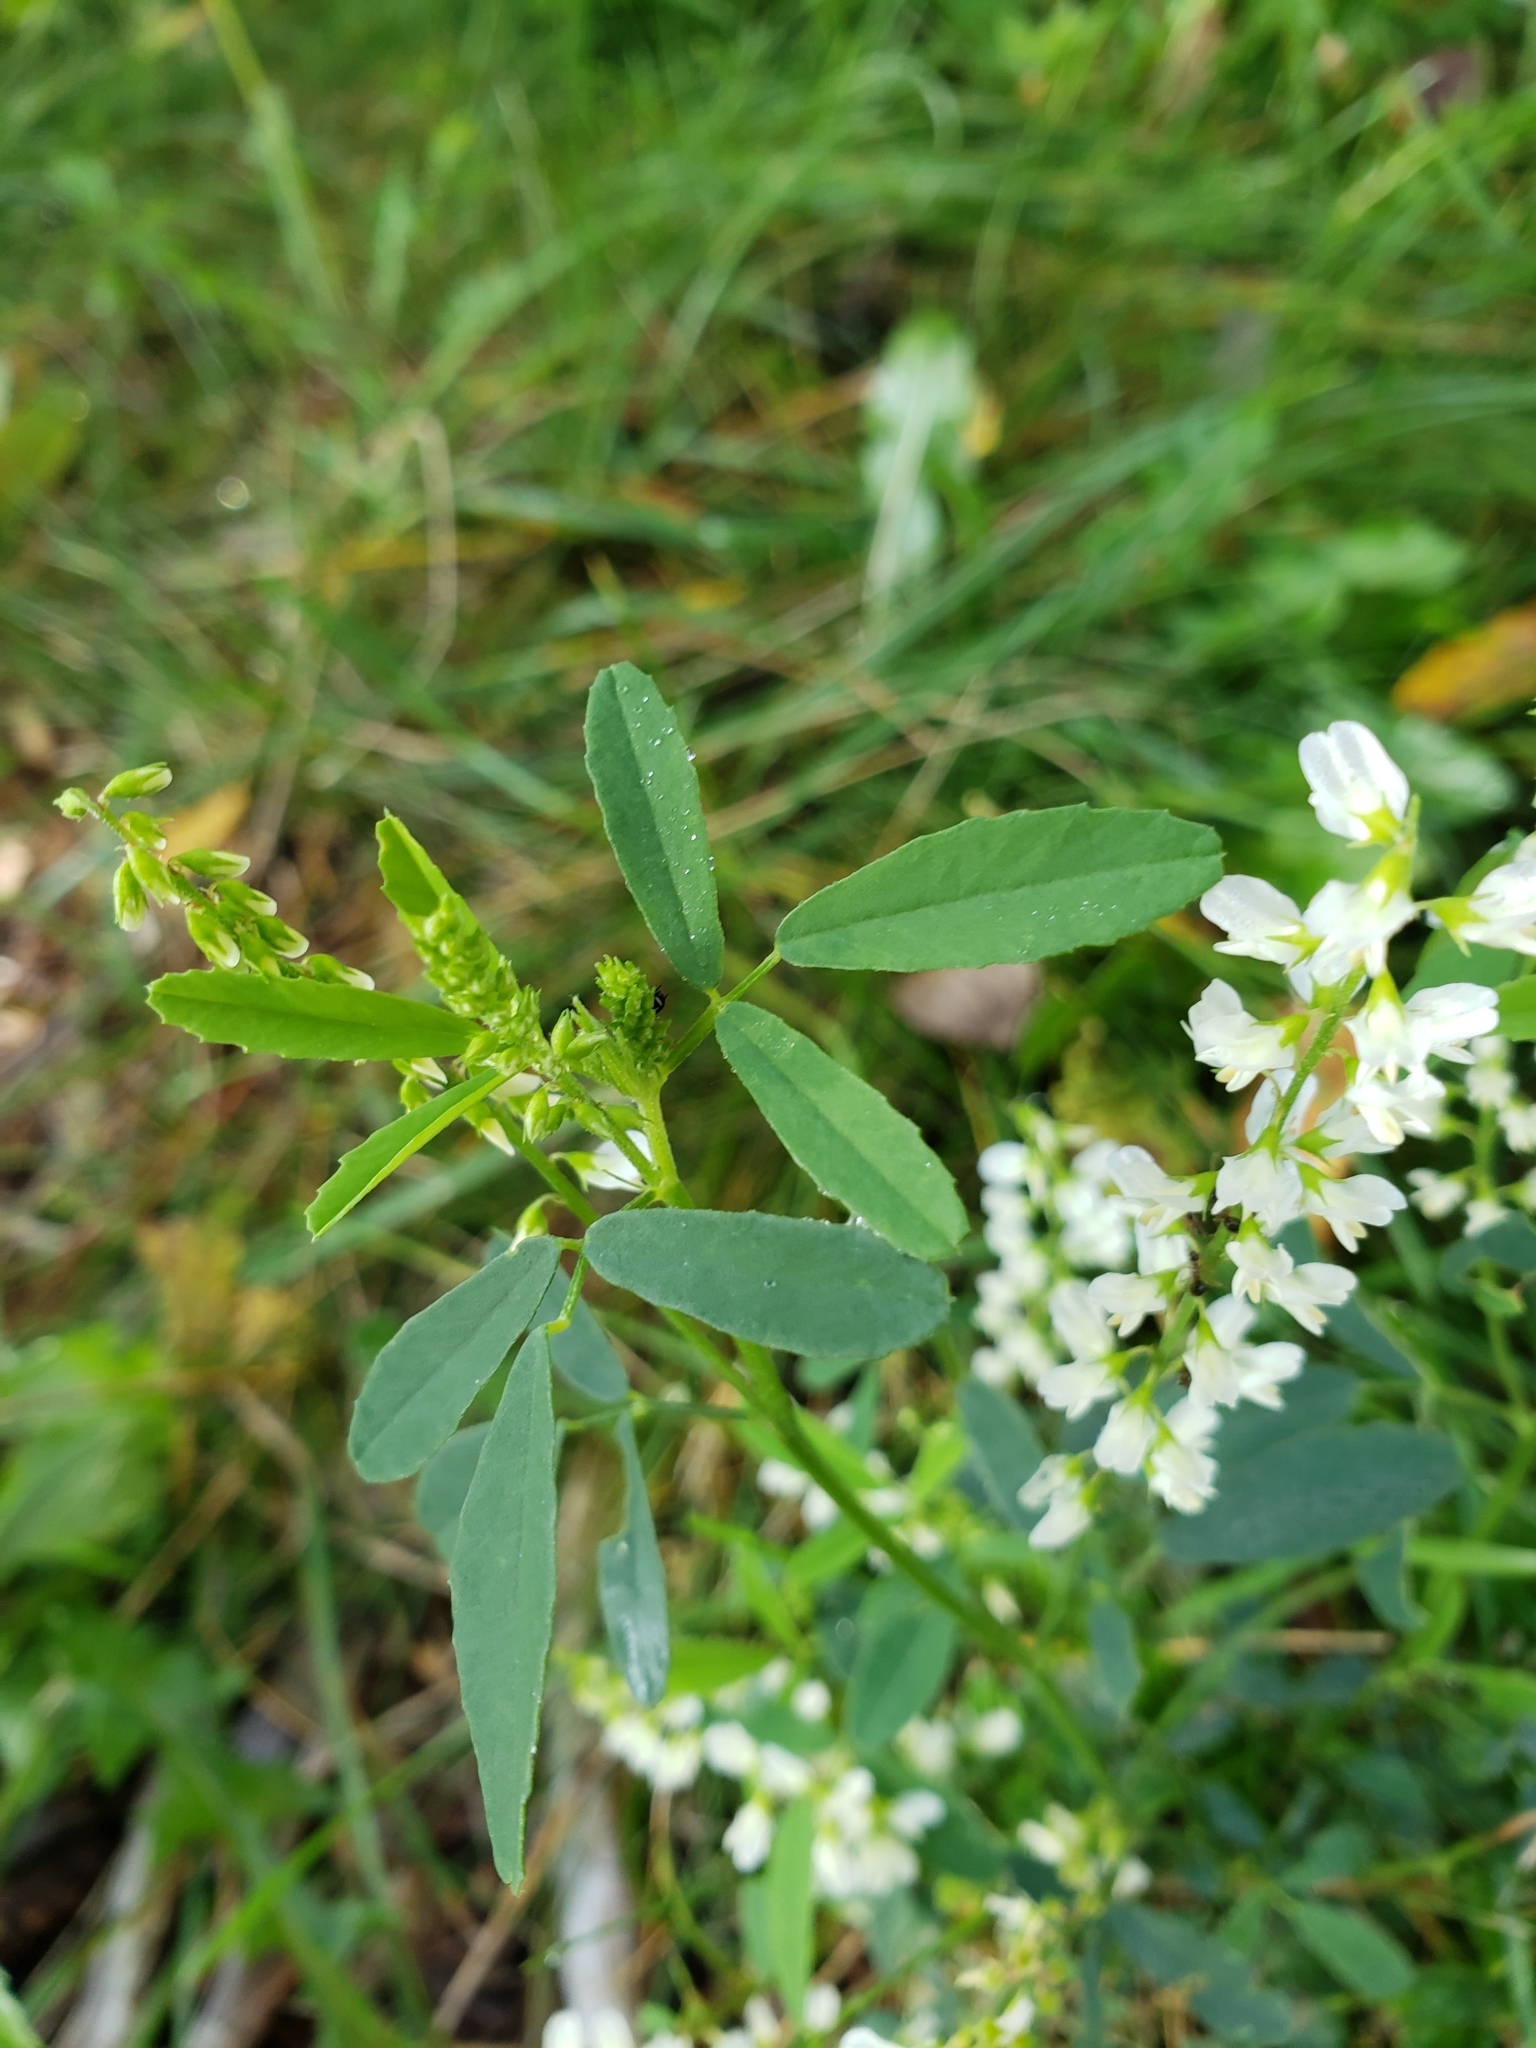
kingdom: Plantae
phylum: Tracheophyta
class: Magnoliopsida
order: Fabales
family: Fabaceae
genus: Melilotus
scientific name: Melilotus albus
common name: White melilot
